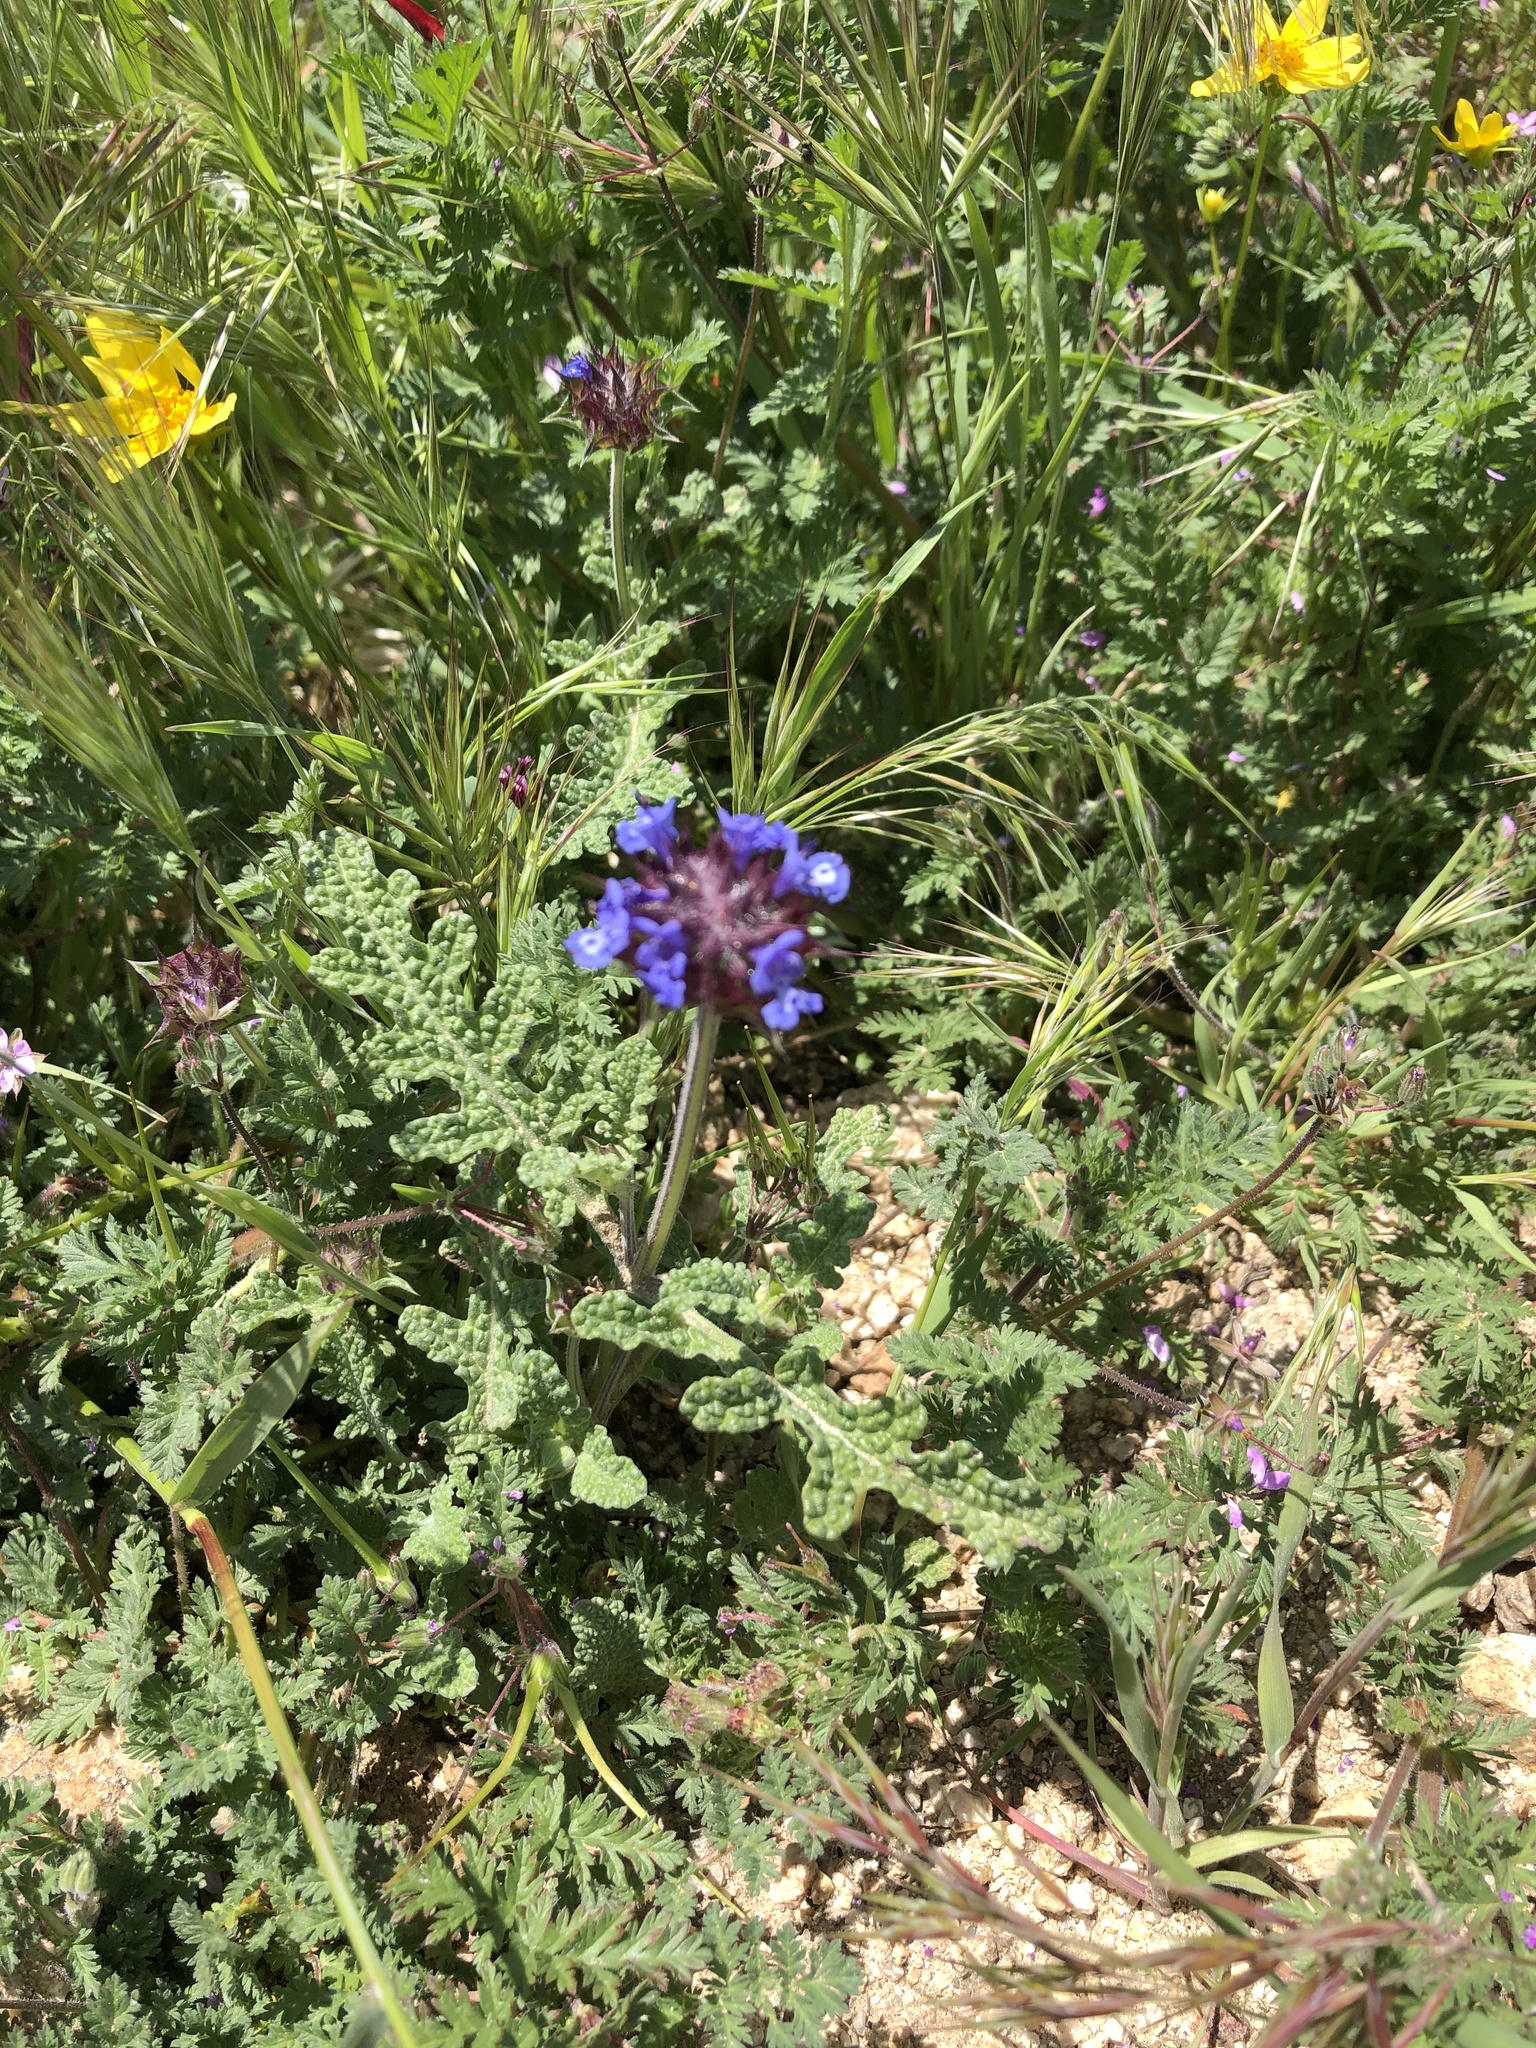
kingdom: Plantae
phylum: Tracheophyta
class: Magnoliopsida
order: Lamiales
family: Lamiaceae
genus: Salvia
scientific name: Salvia columbariae
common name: Chia
